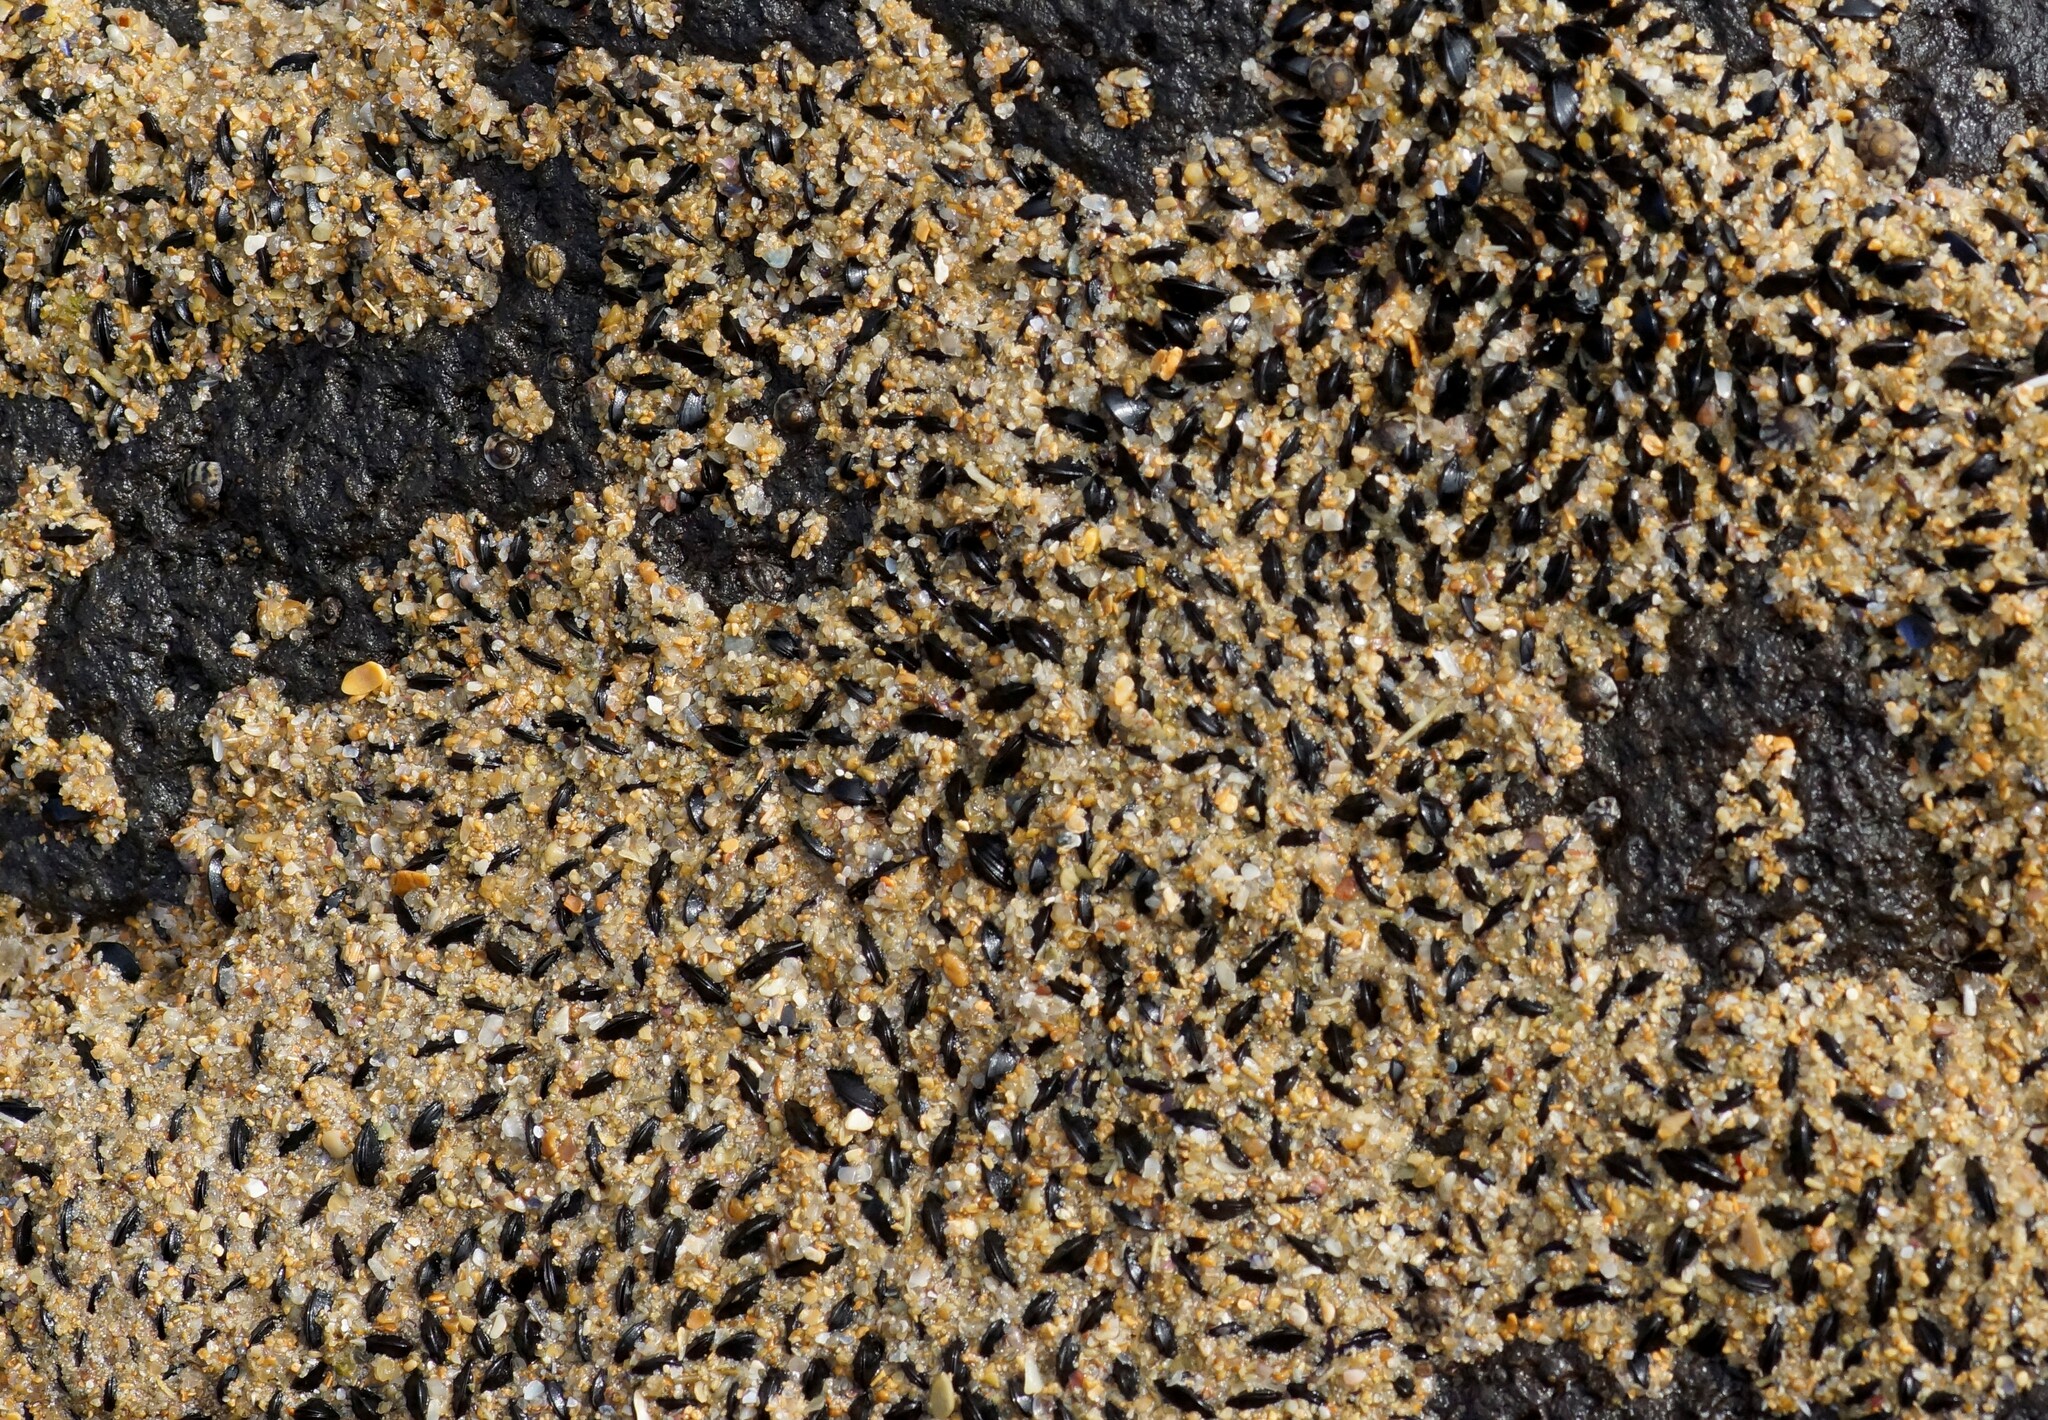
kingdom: Animalia
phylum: Mollusca
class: Bivalvia
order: Mytilida
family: Mytilidae
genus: Xenostrobus
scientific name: Xenostrobus pulex
